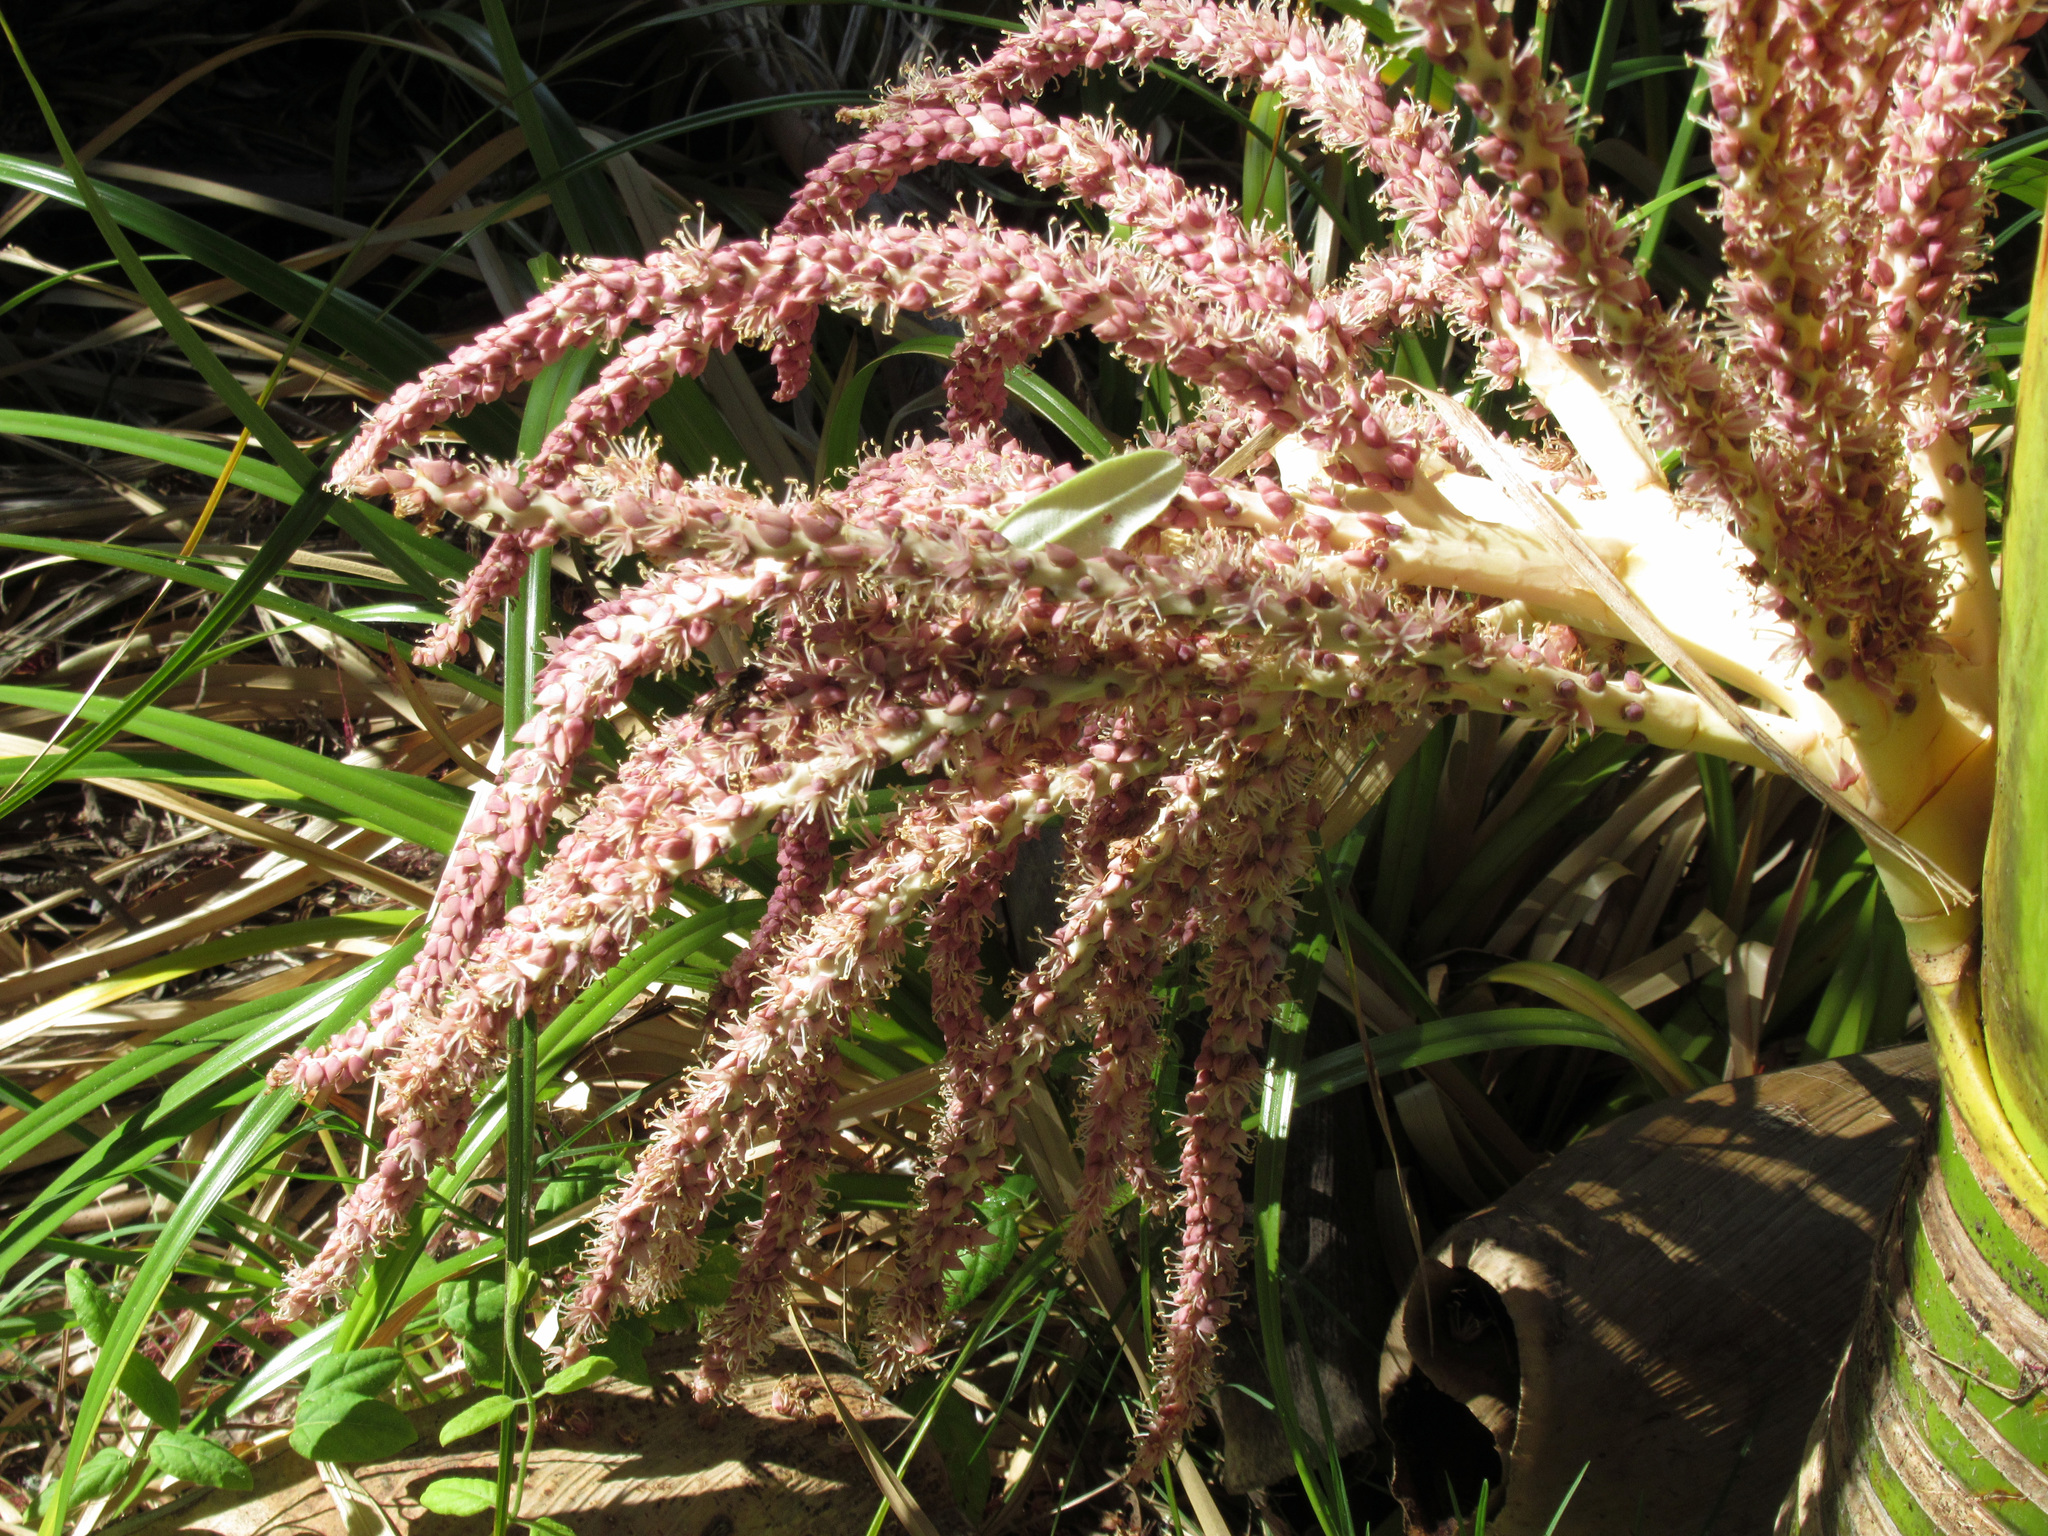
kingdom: Plantae
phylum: Tracheophyta
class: Liliopsida
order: Arecales
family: Arecaceae
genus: Rhopalostylis
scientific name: Rhopalostylis sapida
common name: Feather-duster palm
